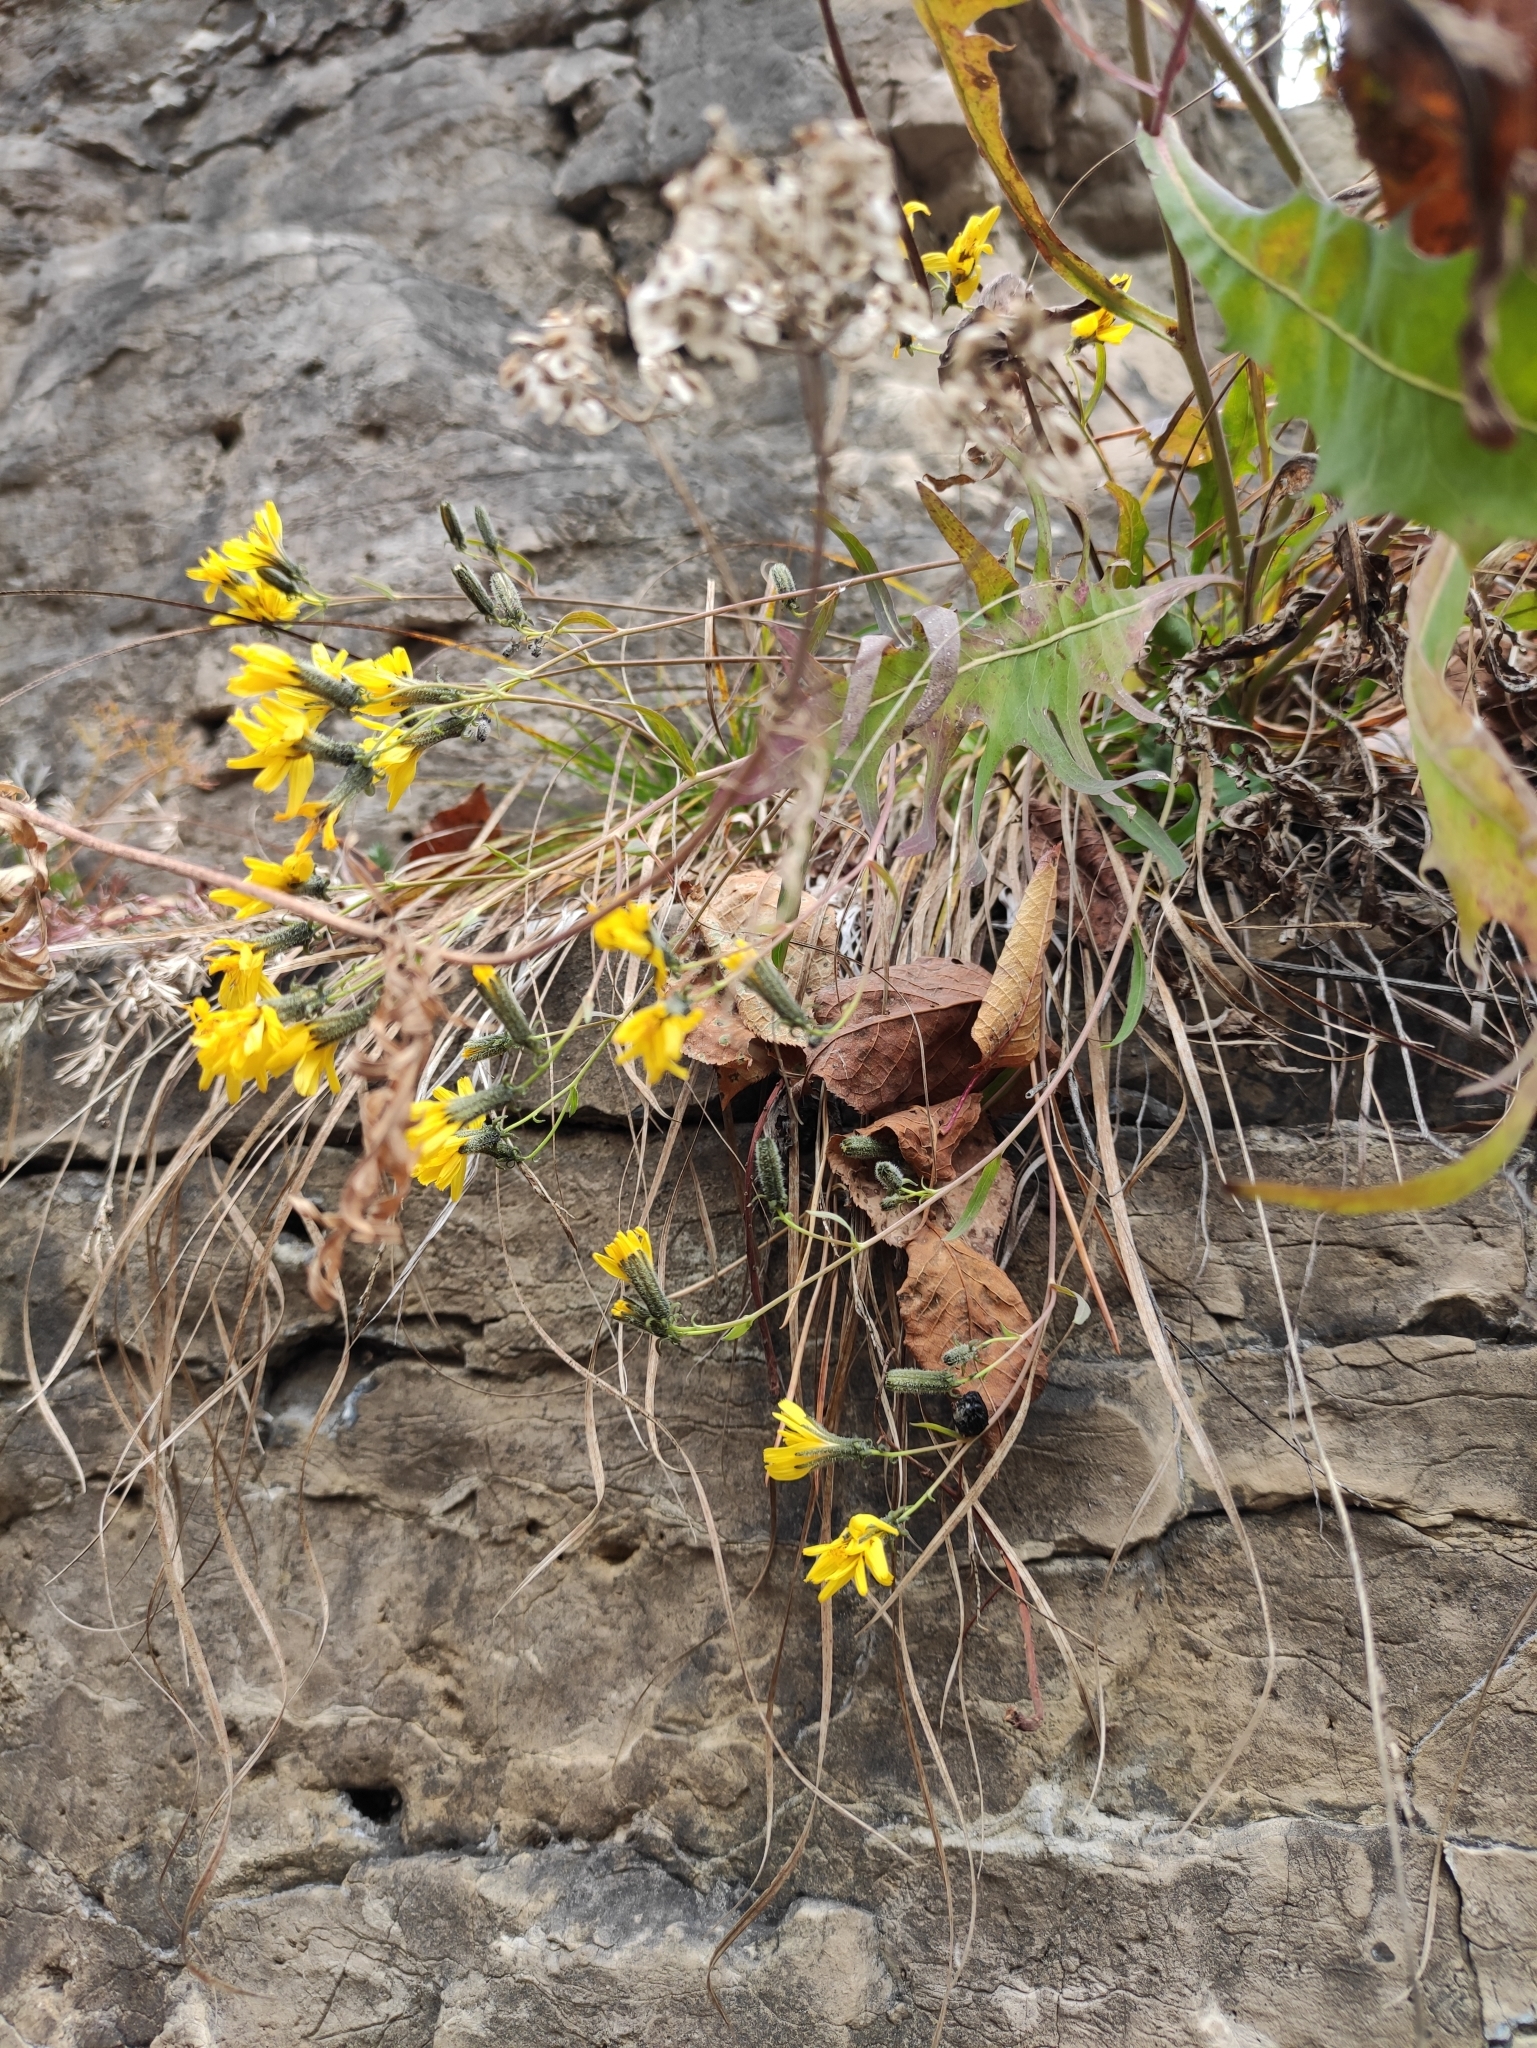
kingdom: Plantae
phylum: Tracheophyta
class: Magnoliopsida
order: Asterales
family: Asteraceae
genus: Crepidiastrum
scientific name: Crepidiastrum tenuifolium
